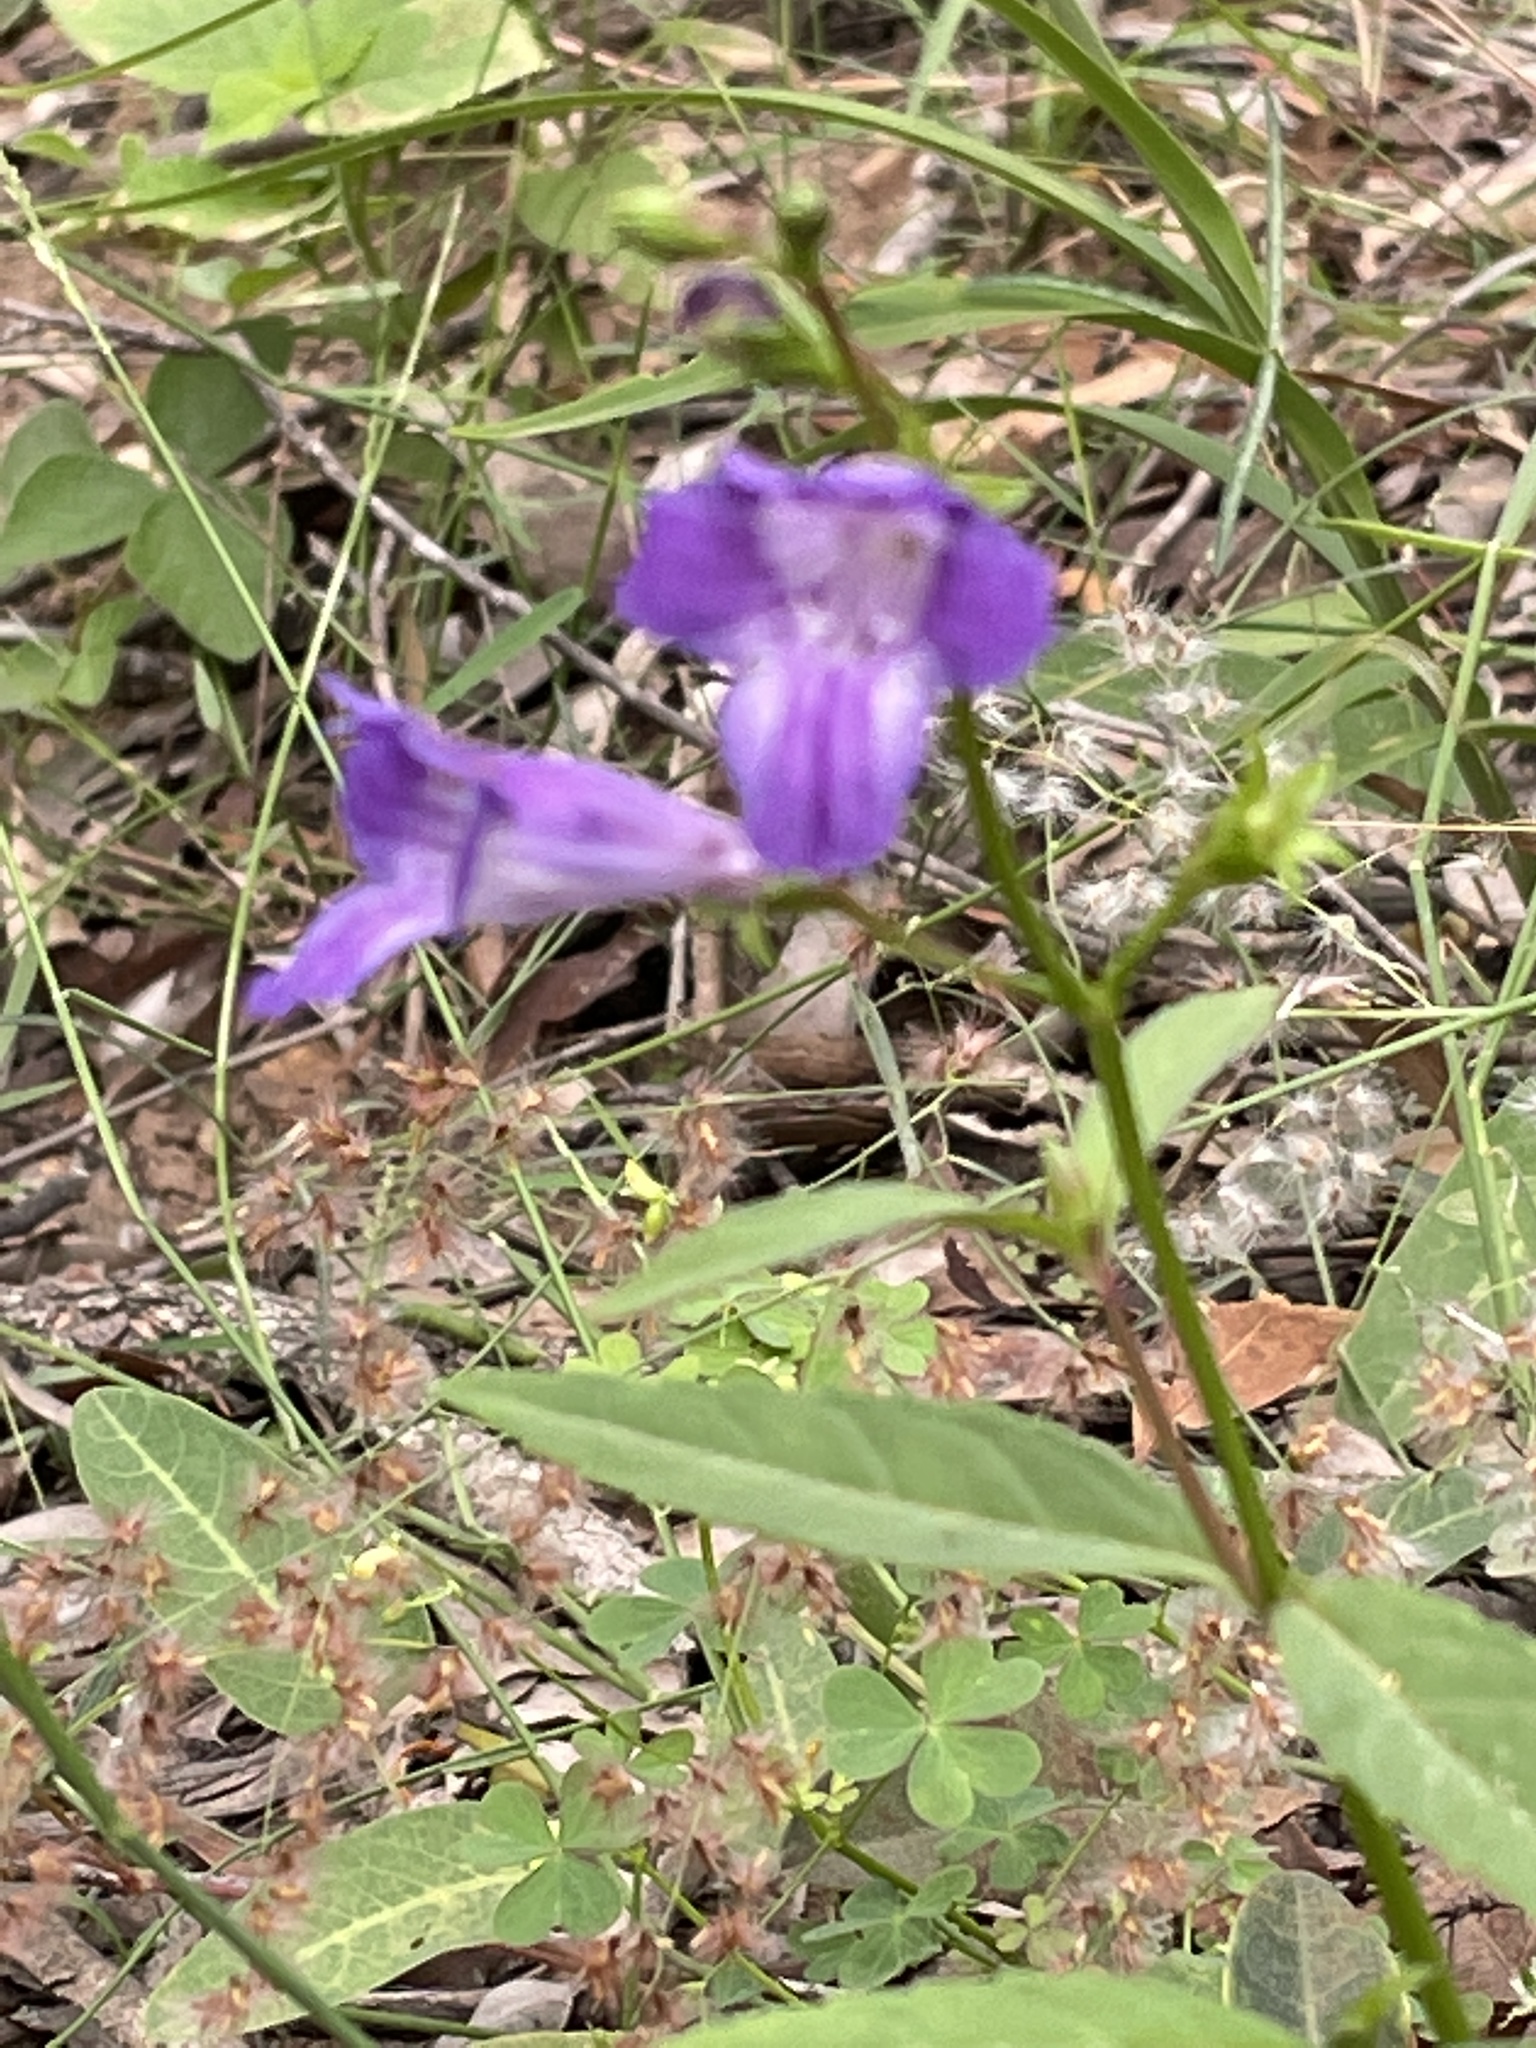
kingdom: Plantae
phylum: Tracheophyta
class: Magnoliopsida
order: Lamiales
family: Linderniaceae
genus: Artanema
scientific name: Artanema fimbriatum
